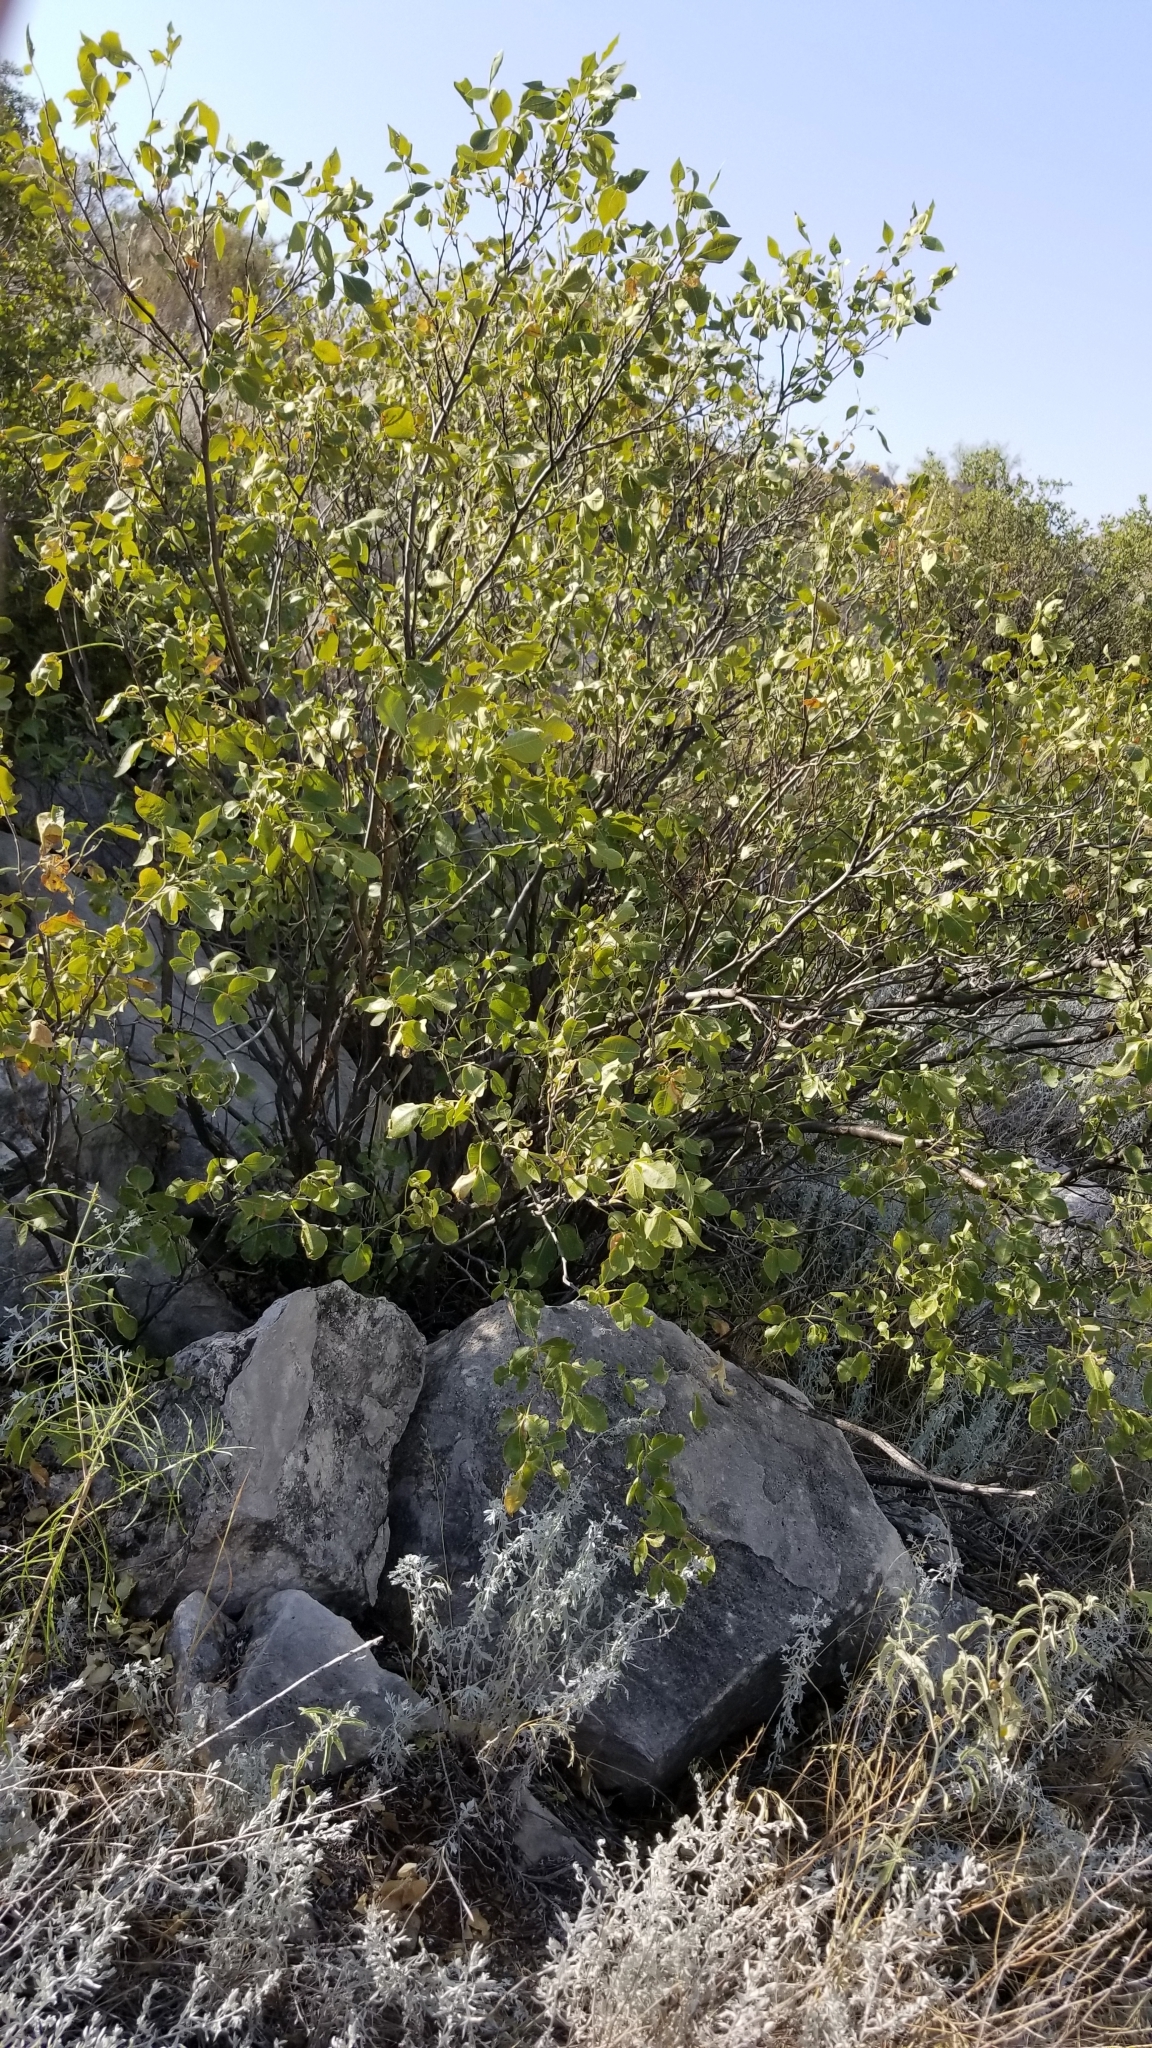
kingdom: Plantae
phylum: Tracheophyta
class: Magnoliopsida
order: Sapindales
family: Rutaceae
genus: Ptelea
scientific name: Ptelea trifoliata
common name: Common hop-tree
